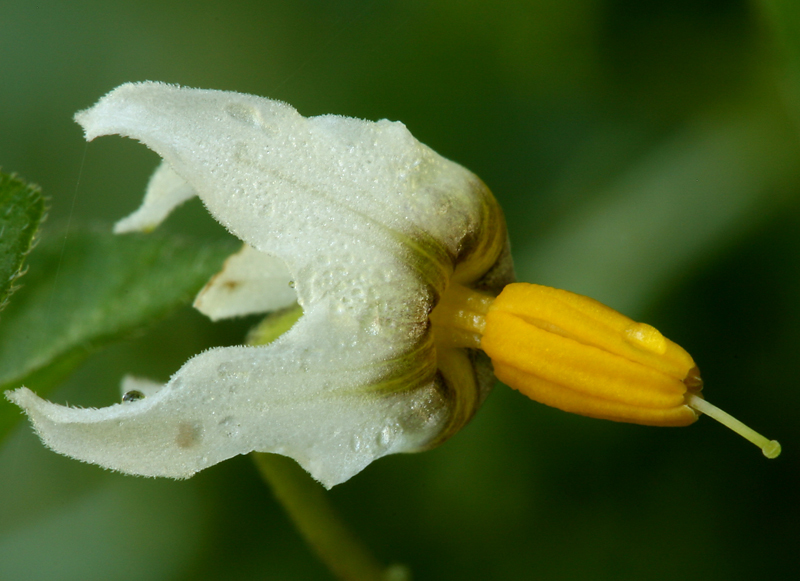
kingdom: Plantae
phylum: Tracheophyta
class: Magnoliopsida
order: Solanales
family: Solanaceae
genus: Solanum
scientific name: Solanum douglasii
